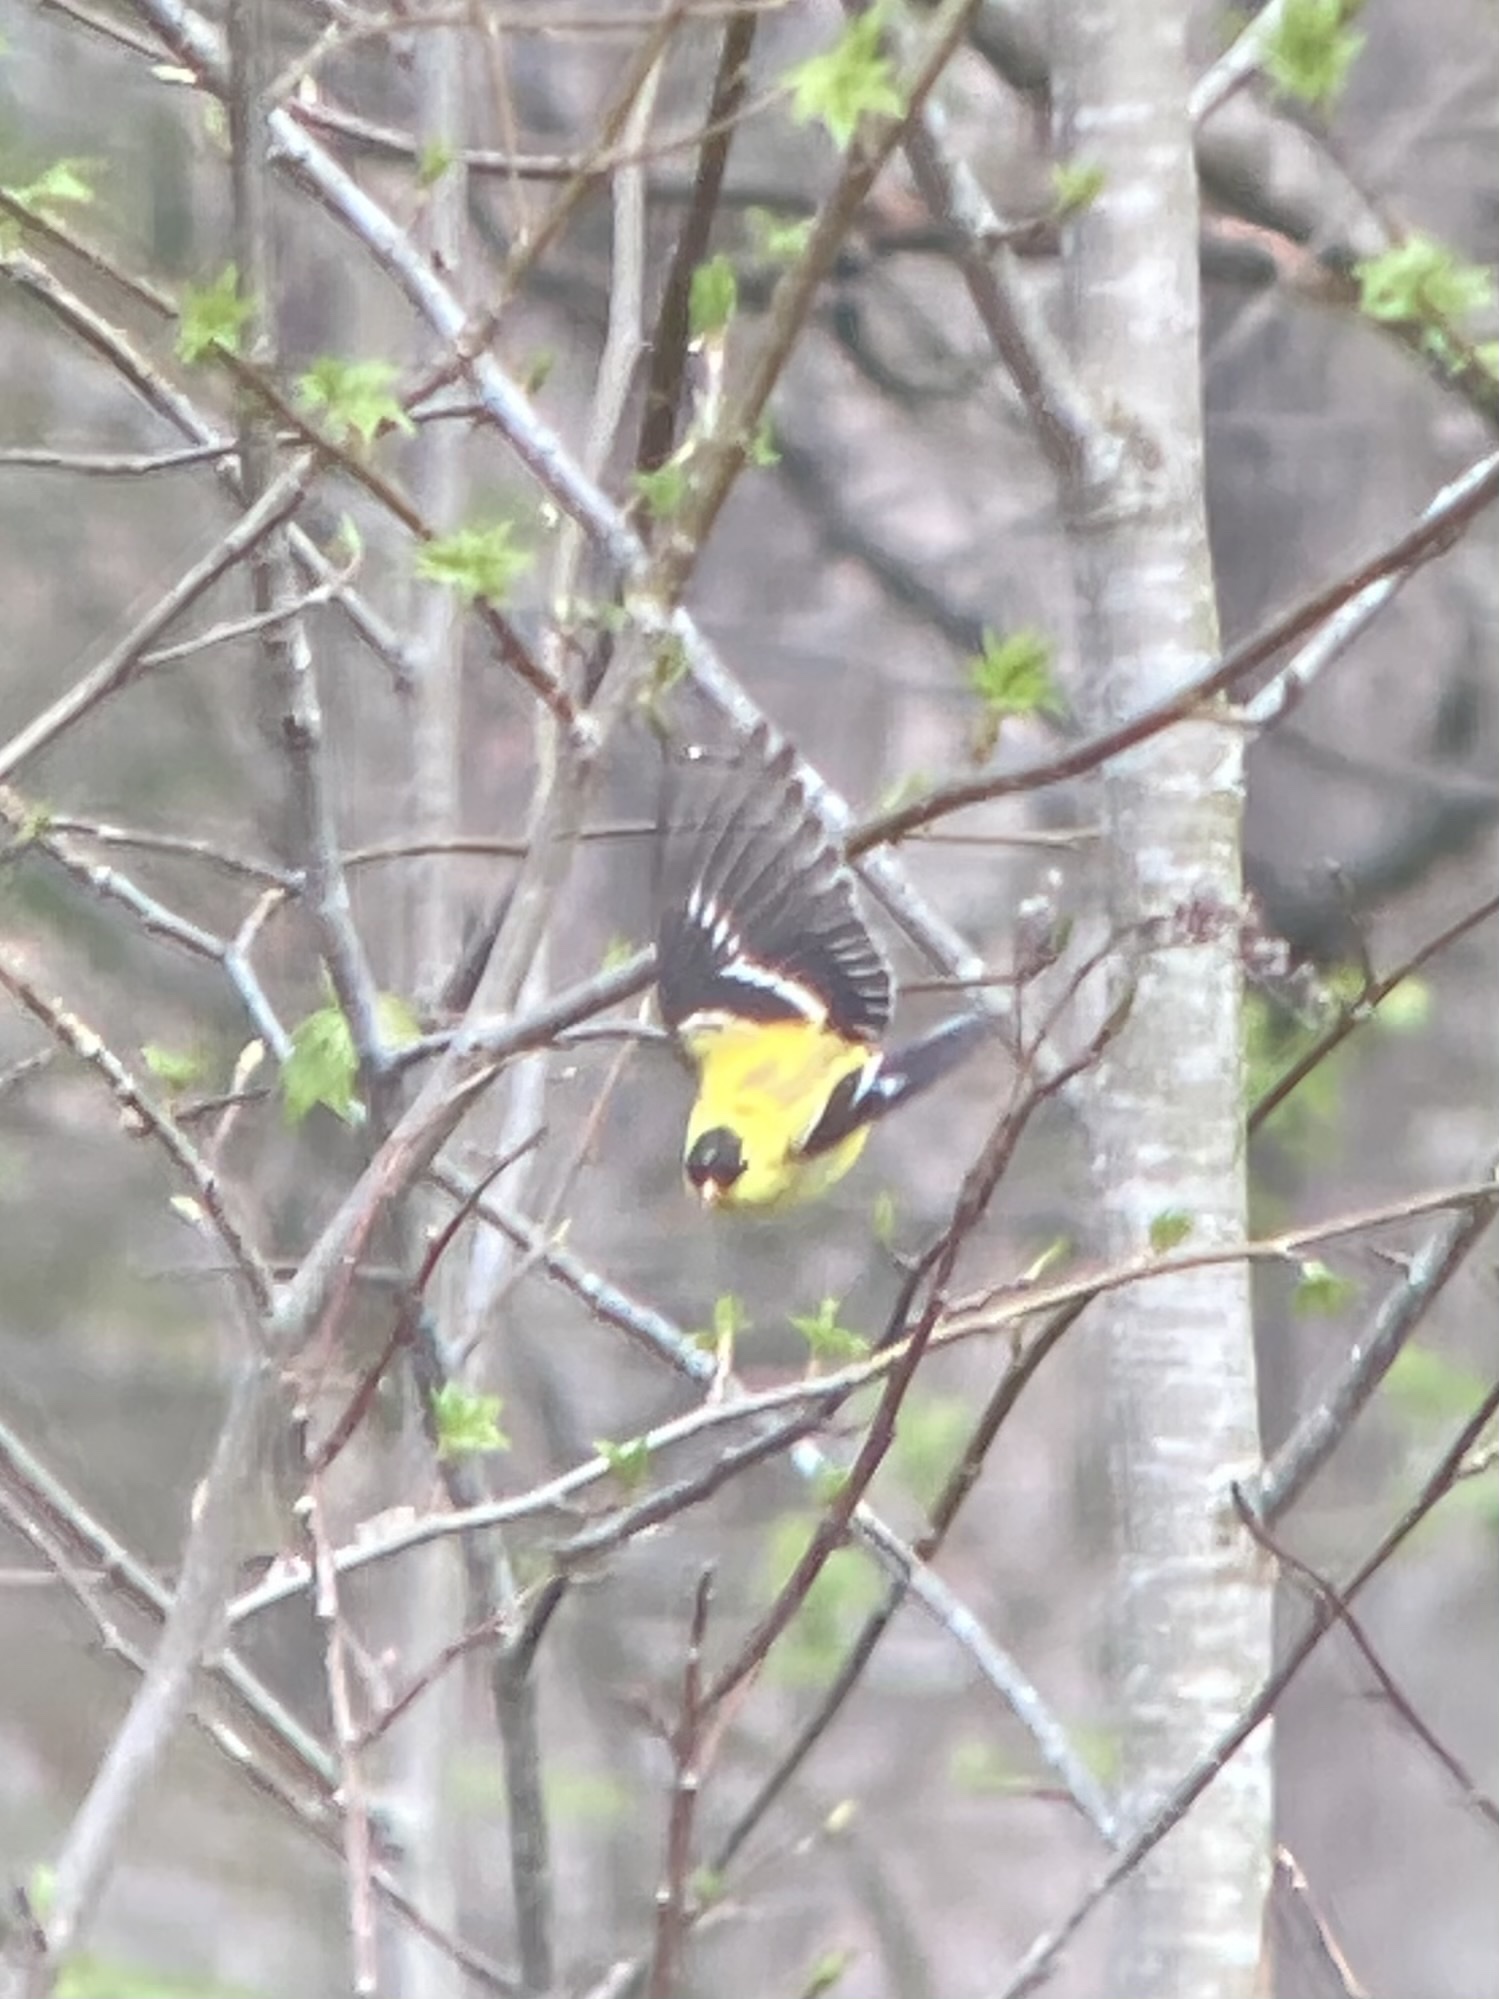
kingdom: Animalia
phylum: Chordata
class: Aves
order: Passeriformes
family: Fringillidae
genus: Spinus
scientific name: Spinus tristis
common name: American goldfinch
